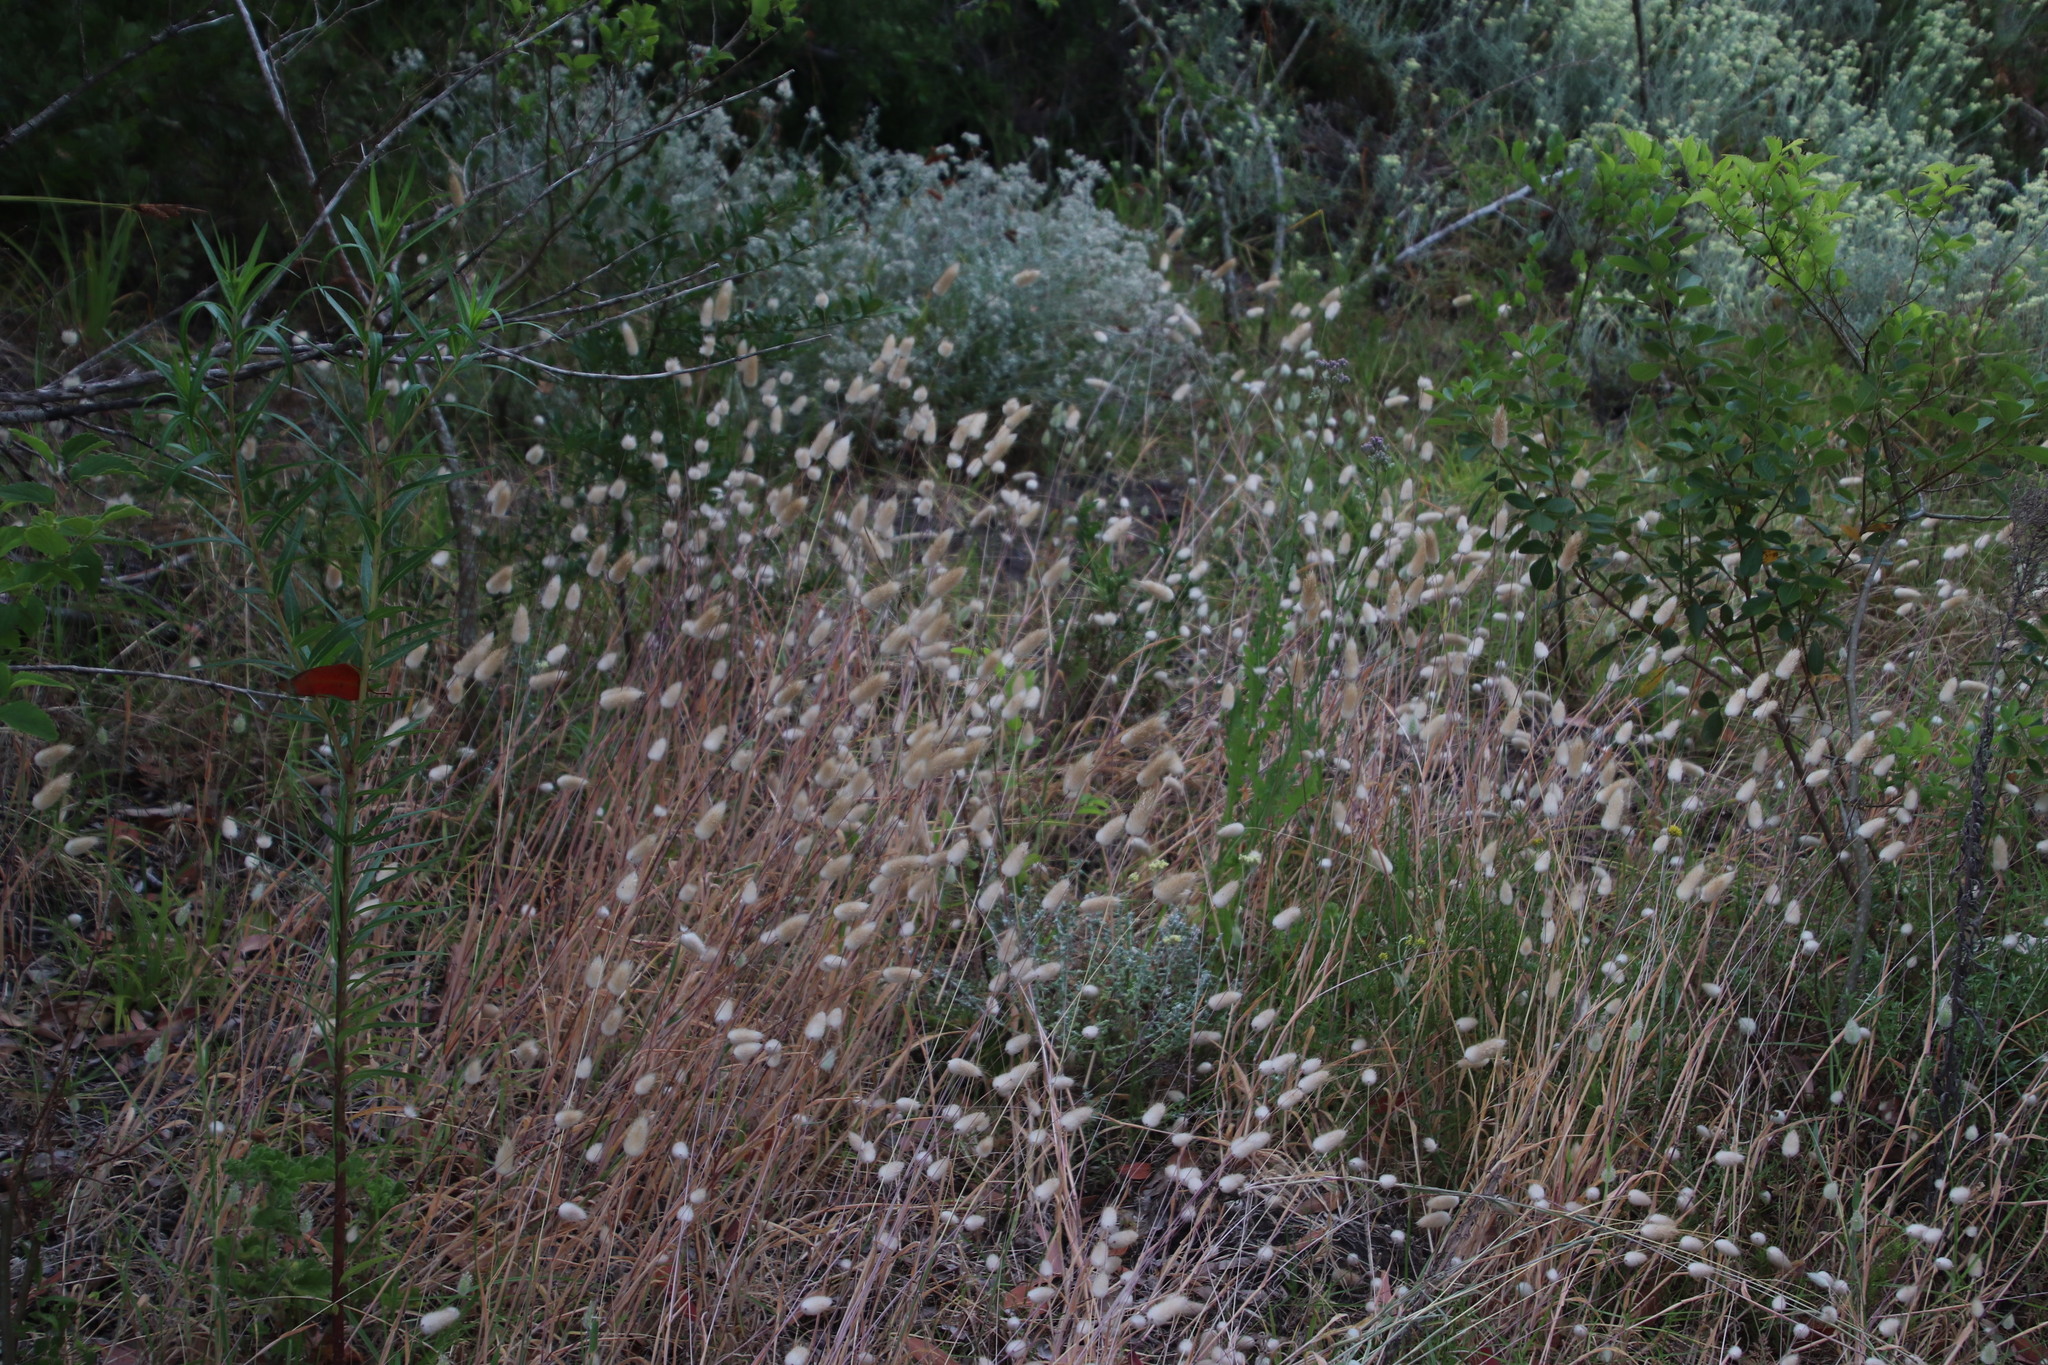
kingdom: Plantae
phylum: Tracheophyta
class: Liliopsida
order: Poales
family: Poaceae
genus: Lagurus
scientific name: Lagurus ovatus
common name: Hare's-tail
